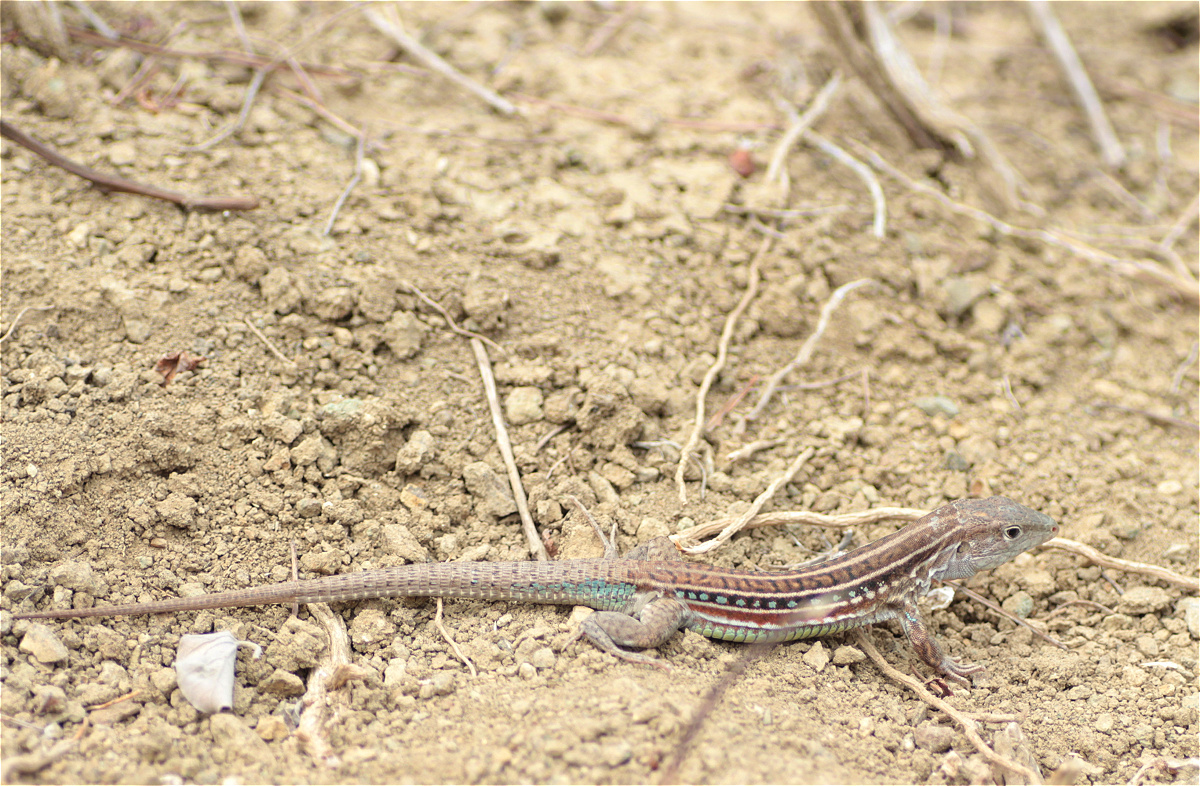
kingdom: Animalia
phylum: Chordata
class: Squamata
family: Teiidae
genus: Medopheos
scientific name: Medopheos edracanthus
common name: Bocourt's ameiva
